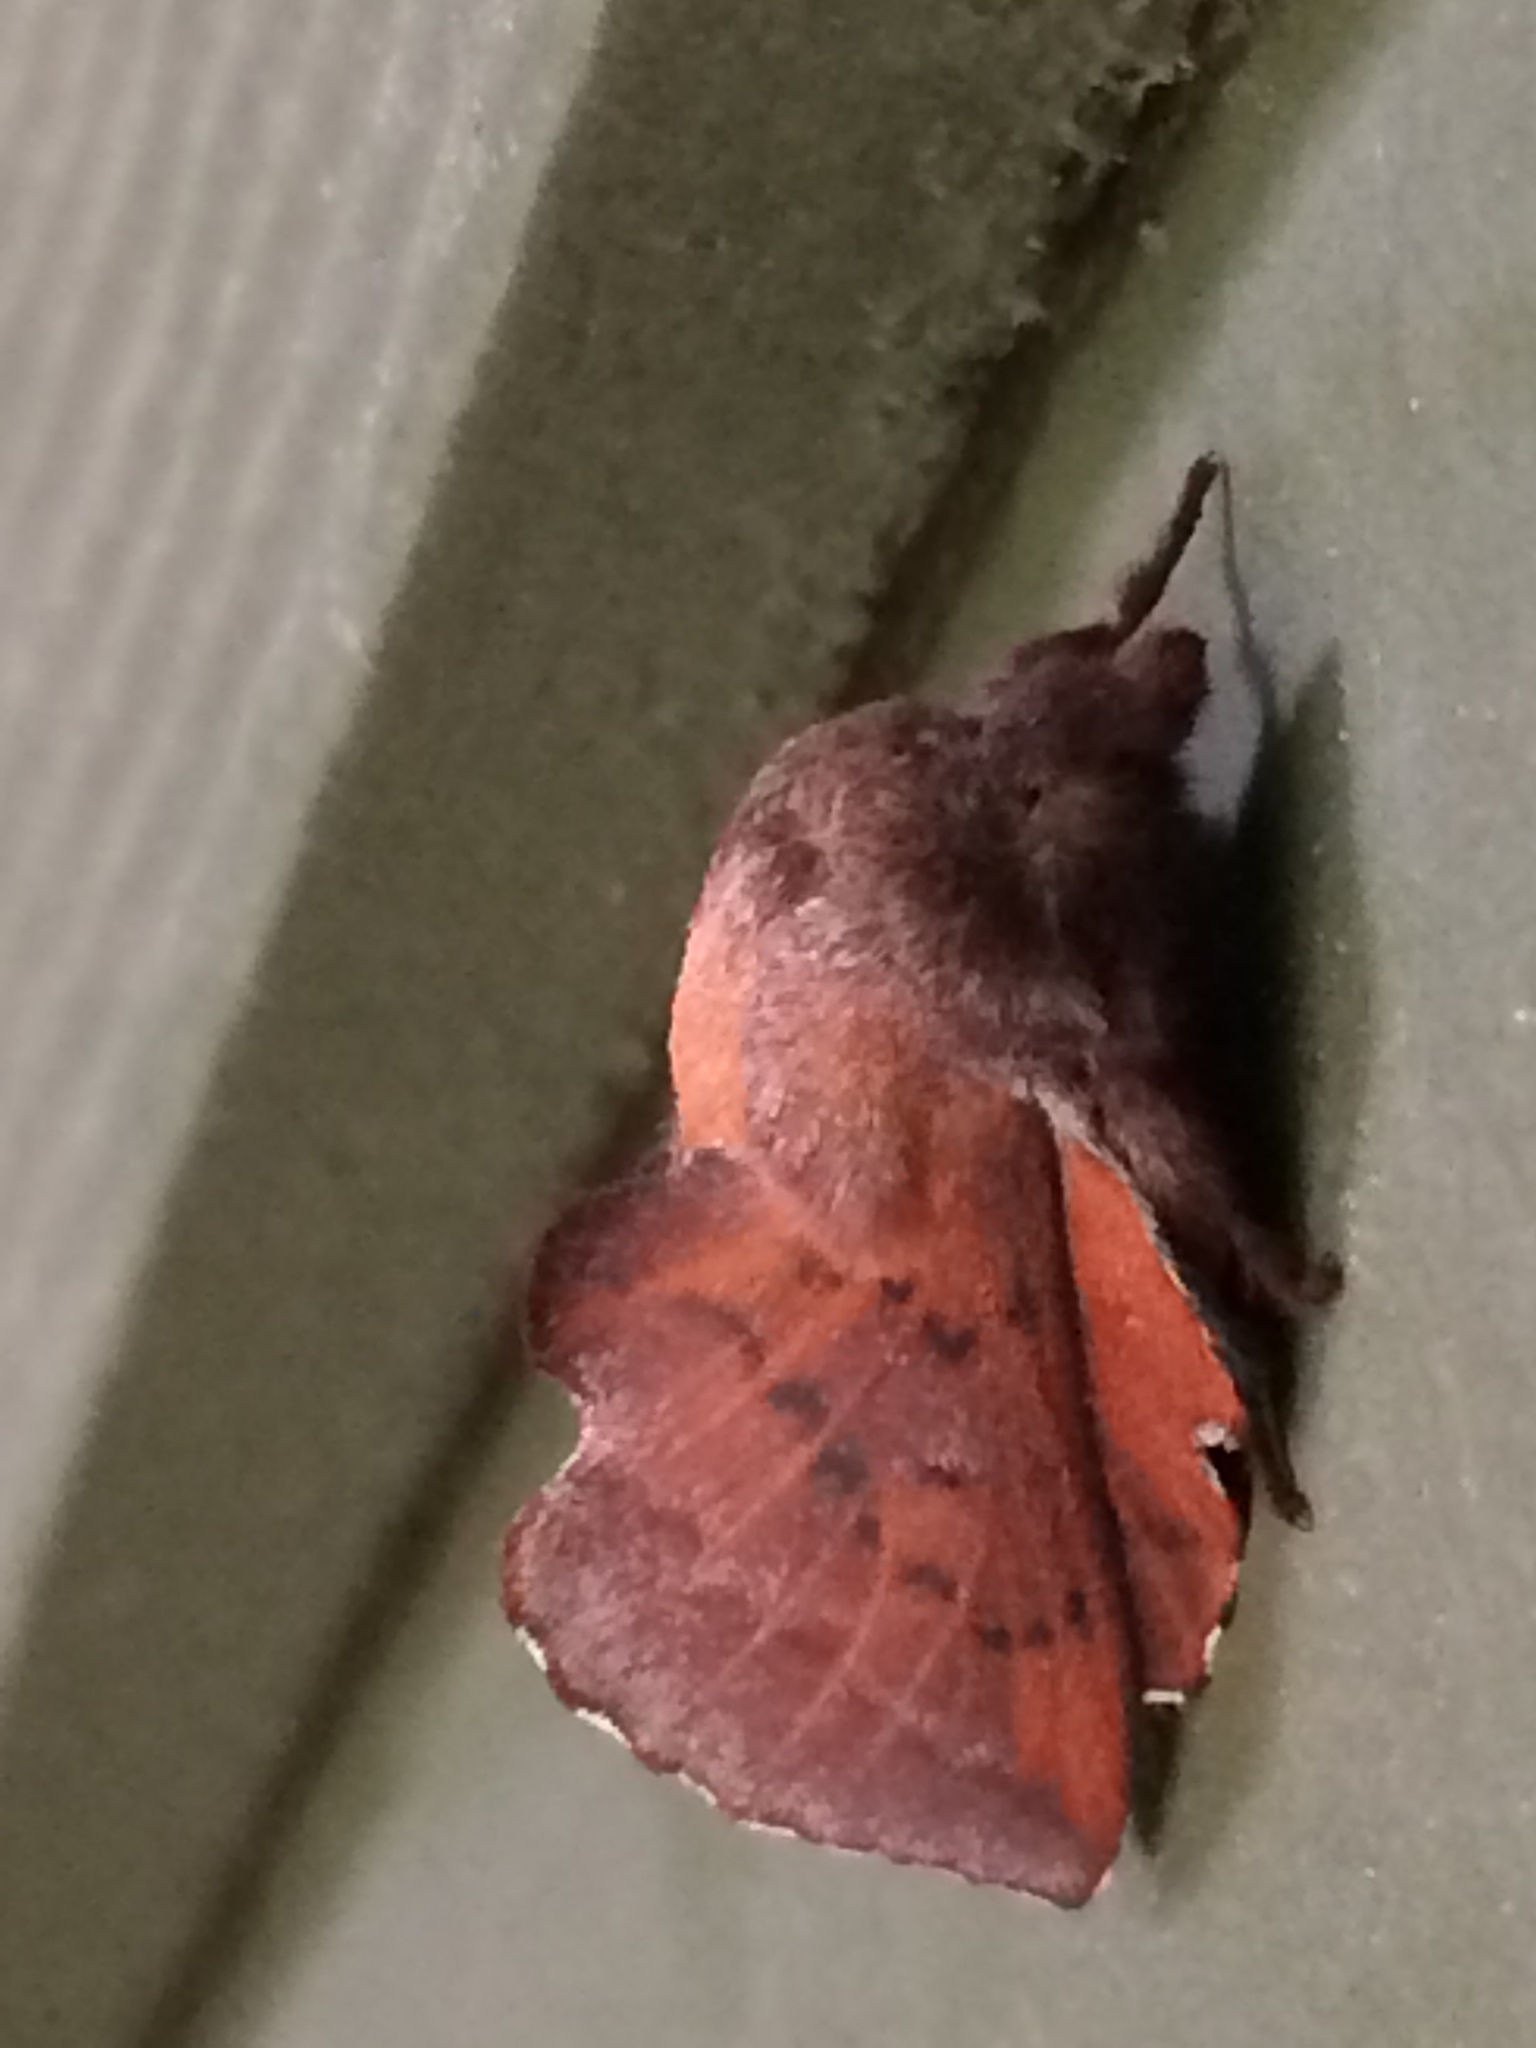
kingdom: Animalia
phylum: Arthropoda
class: Insecta
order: Lepidoptera
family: Lasiocampidae
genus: Phyllodesma
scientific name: Phyllodesma americana
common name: American lappet moth
